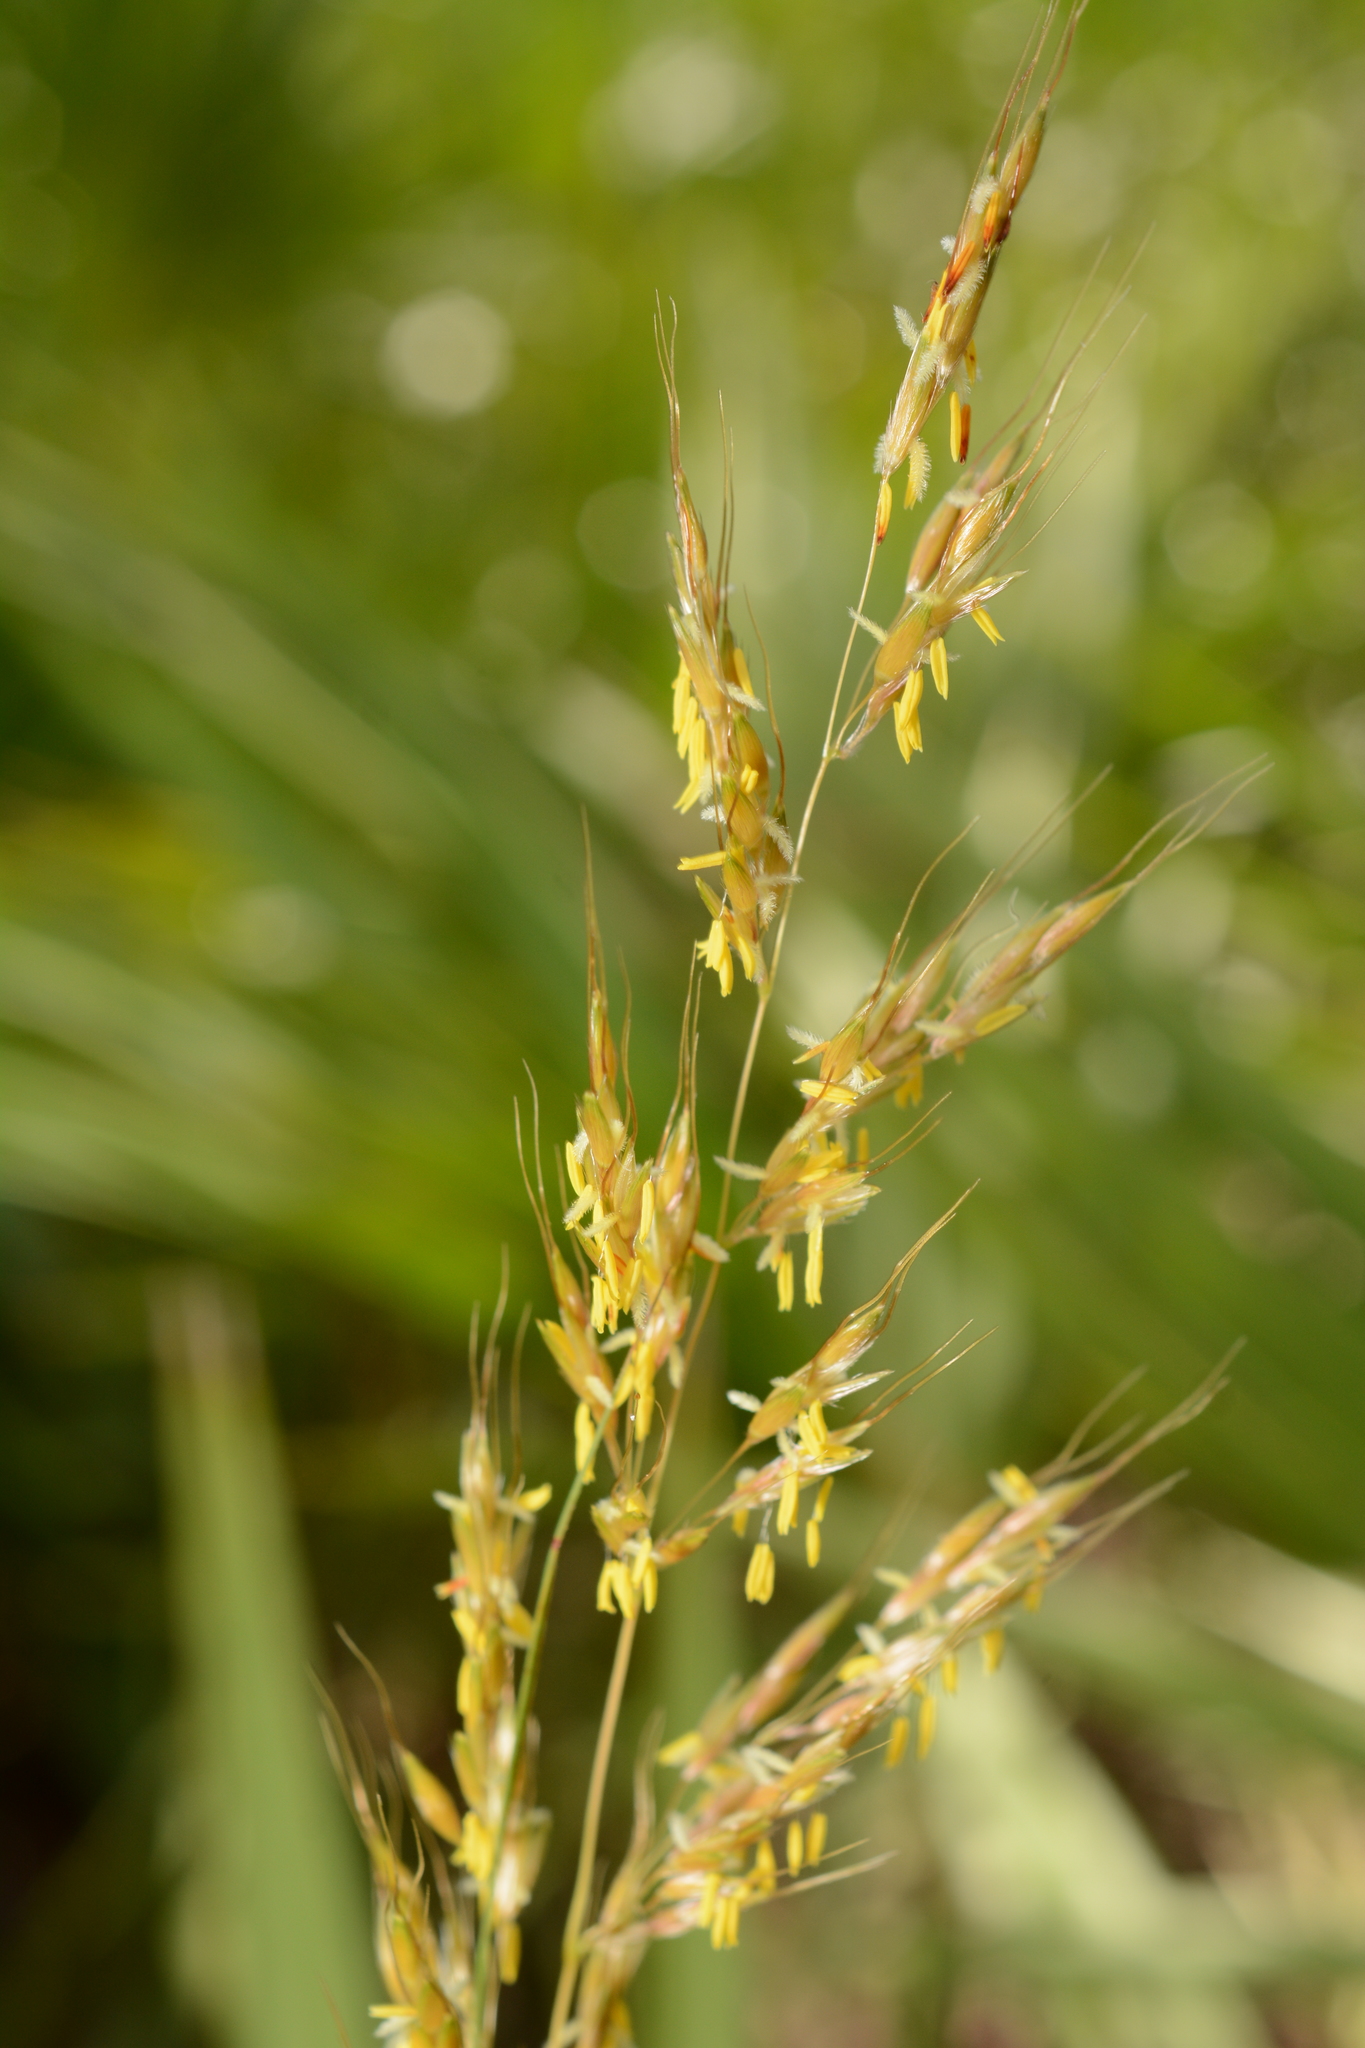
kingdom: Plantae
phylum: Tracheophyta
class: Liliopsida
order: Poales
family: Poaceae
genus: Sorghastrum
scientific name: Sorghastrum nutans
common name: Indian grass
